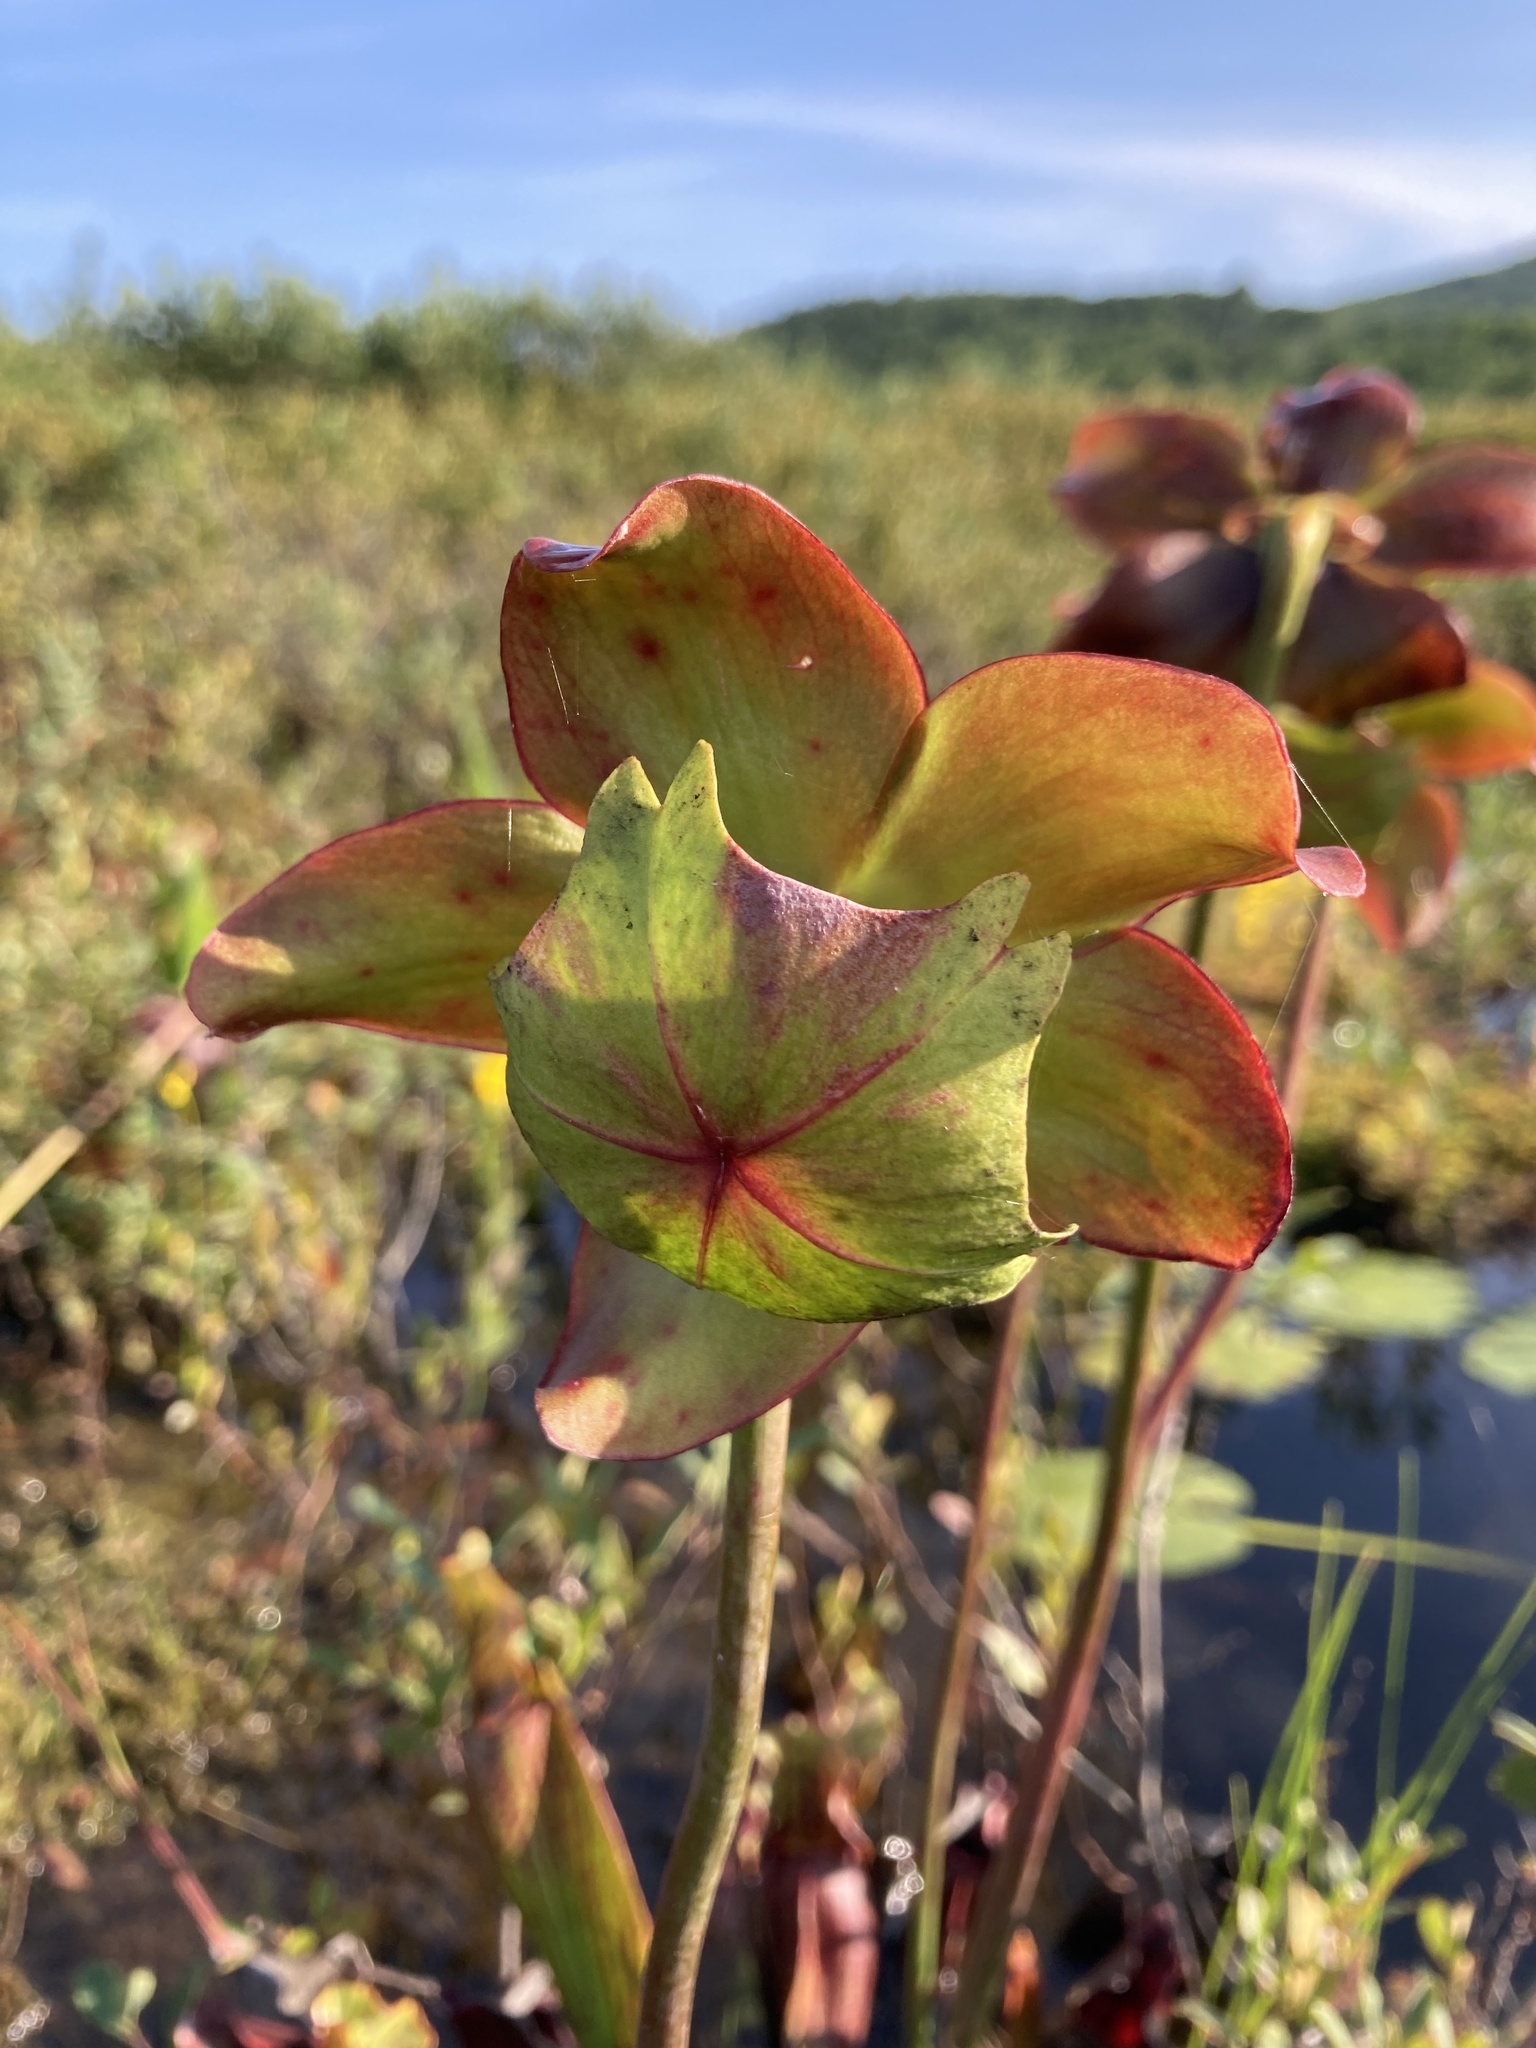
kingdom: Plantae
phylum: Tracheophyta
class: Magnoliopsida
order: Ericales
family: Sarraceniaceae
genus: Sarracenia
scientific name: Sarracenia purpurea
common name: Pitcherplant
